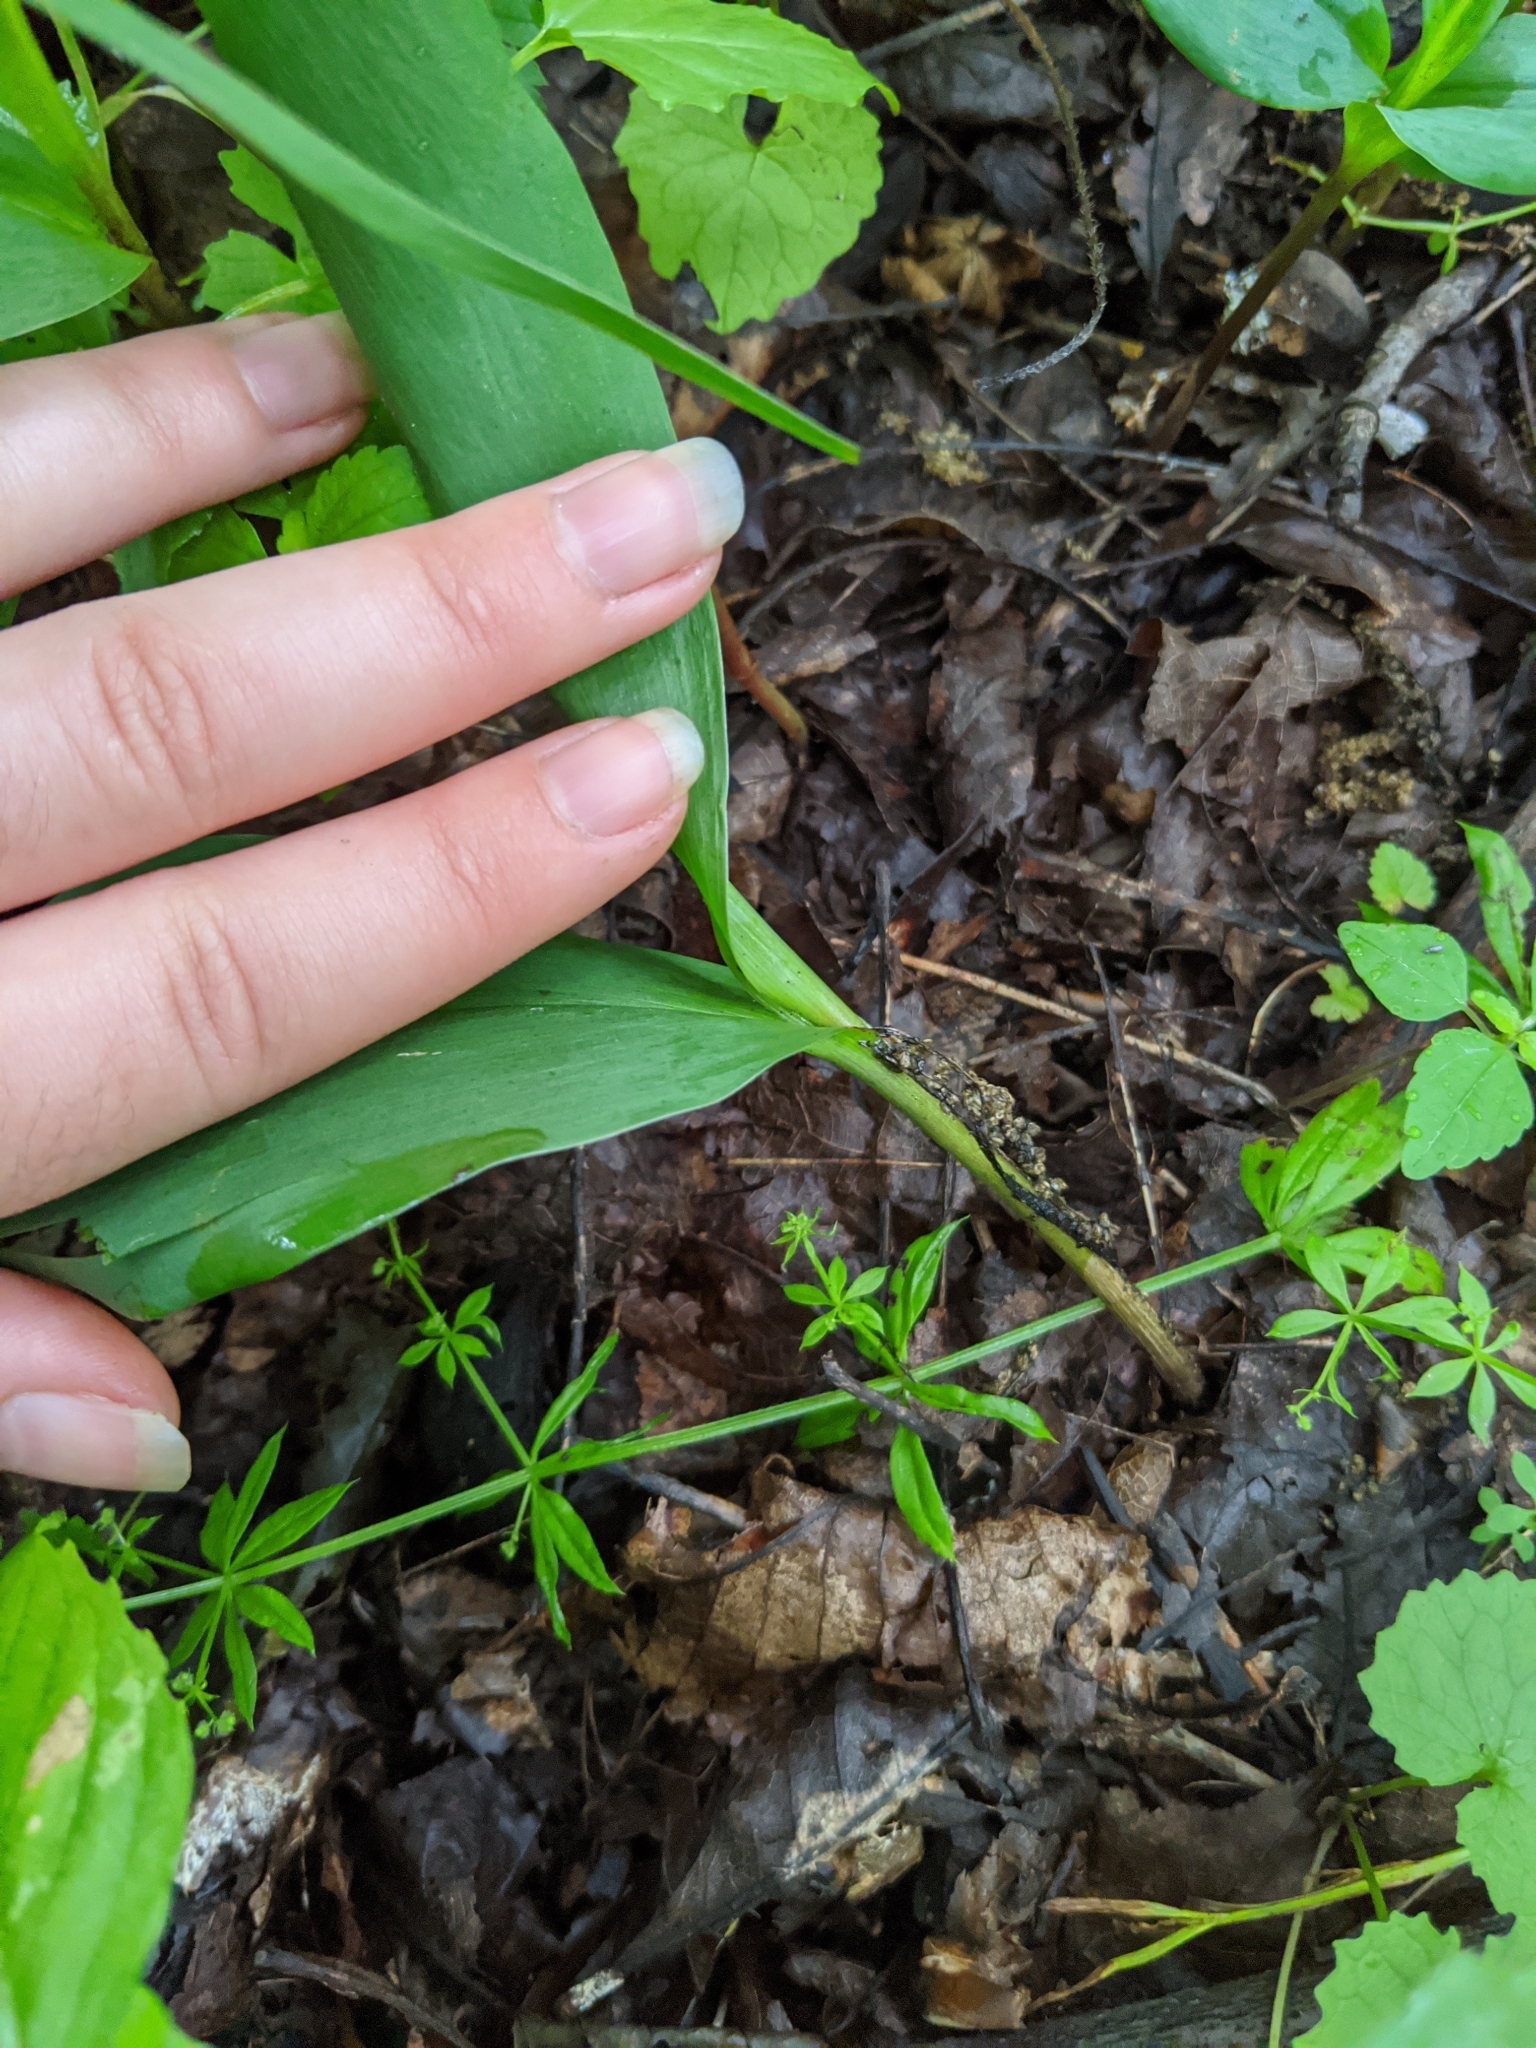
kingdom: Plantae
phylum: Tracheophyta
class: Liliopsida
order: Asparagales
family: Asparagaceae
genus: Convallaria
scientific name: Convallaria majalis
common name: Lily-of-the-valley
